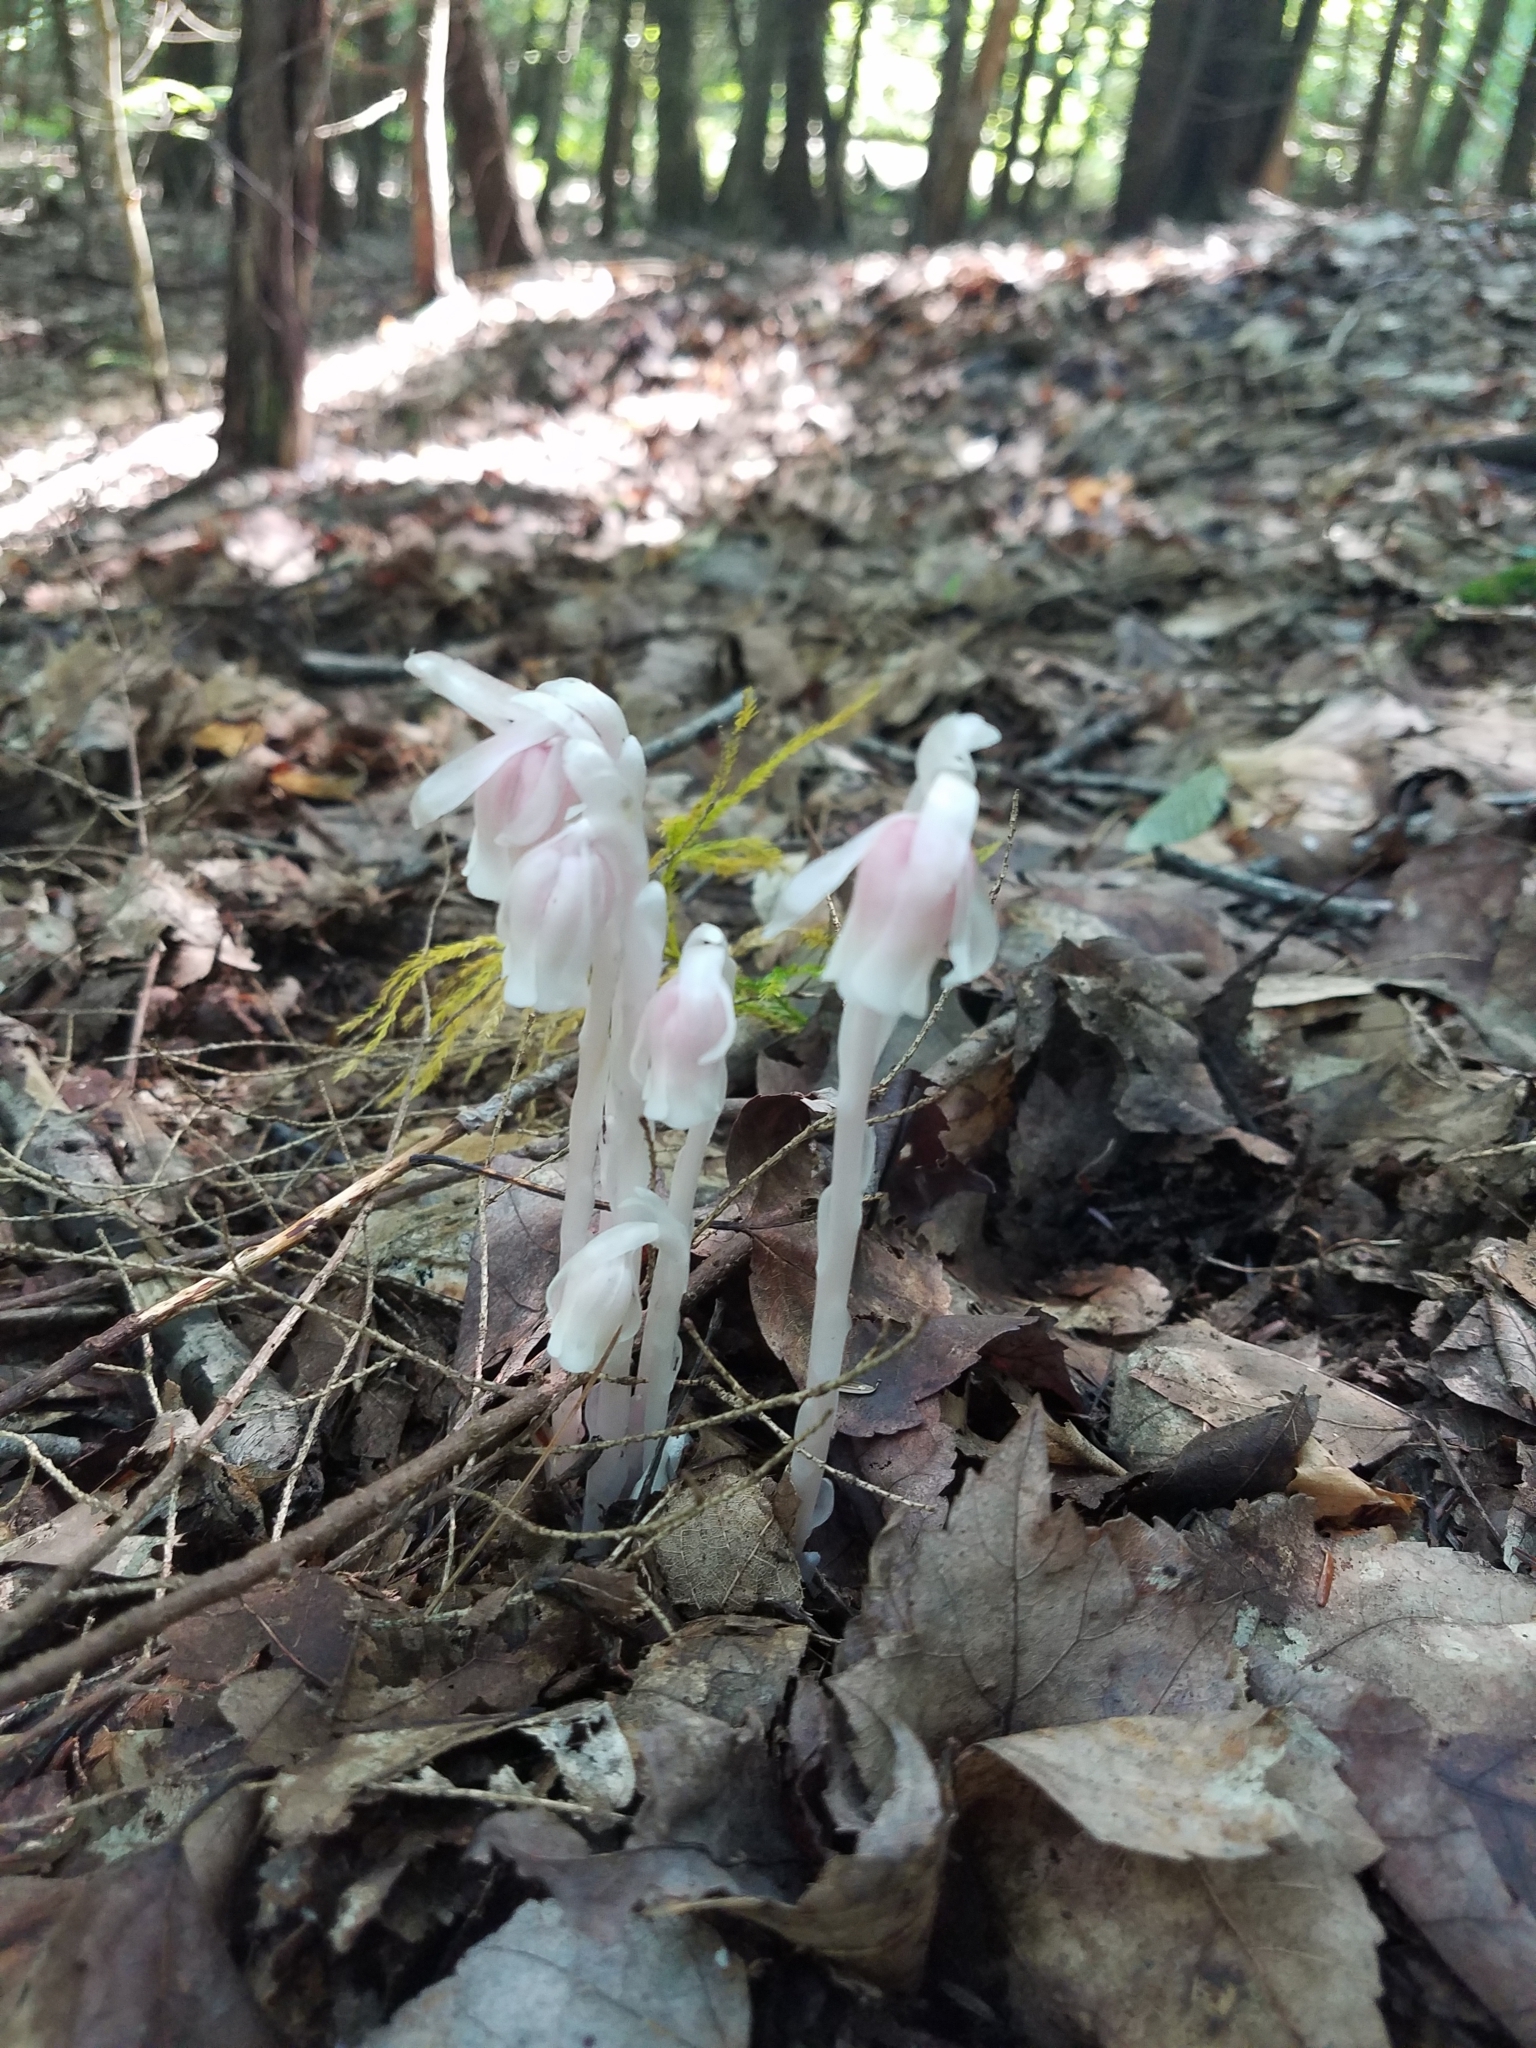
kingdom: Plantae
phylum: Tracheophyta
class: Magnoliopsida
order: Ericales
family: Ericaceae
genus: Monotropa
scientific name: Monotropa uniflora
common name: Convulsion root
